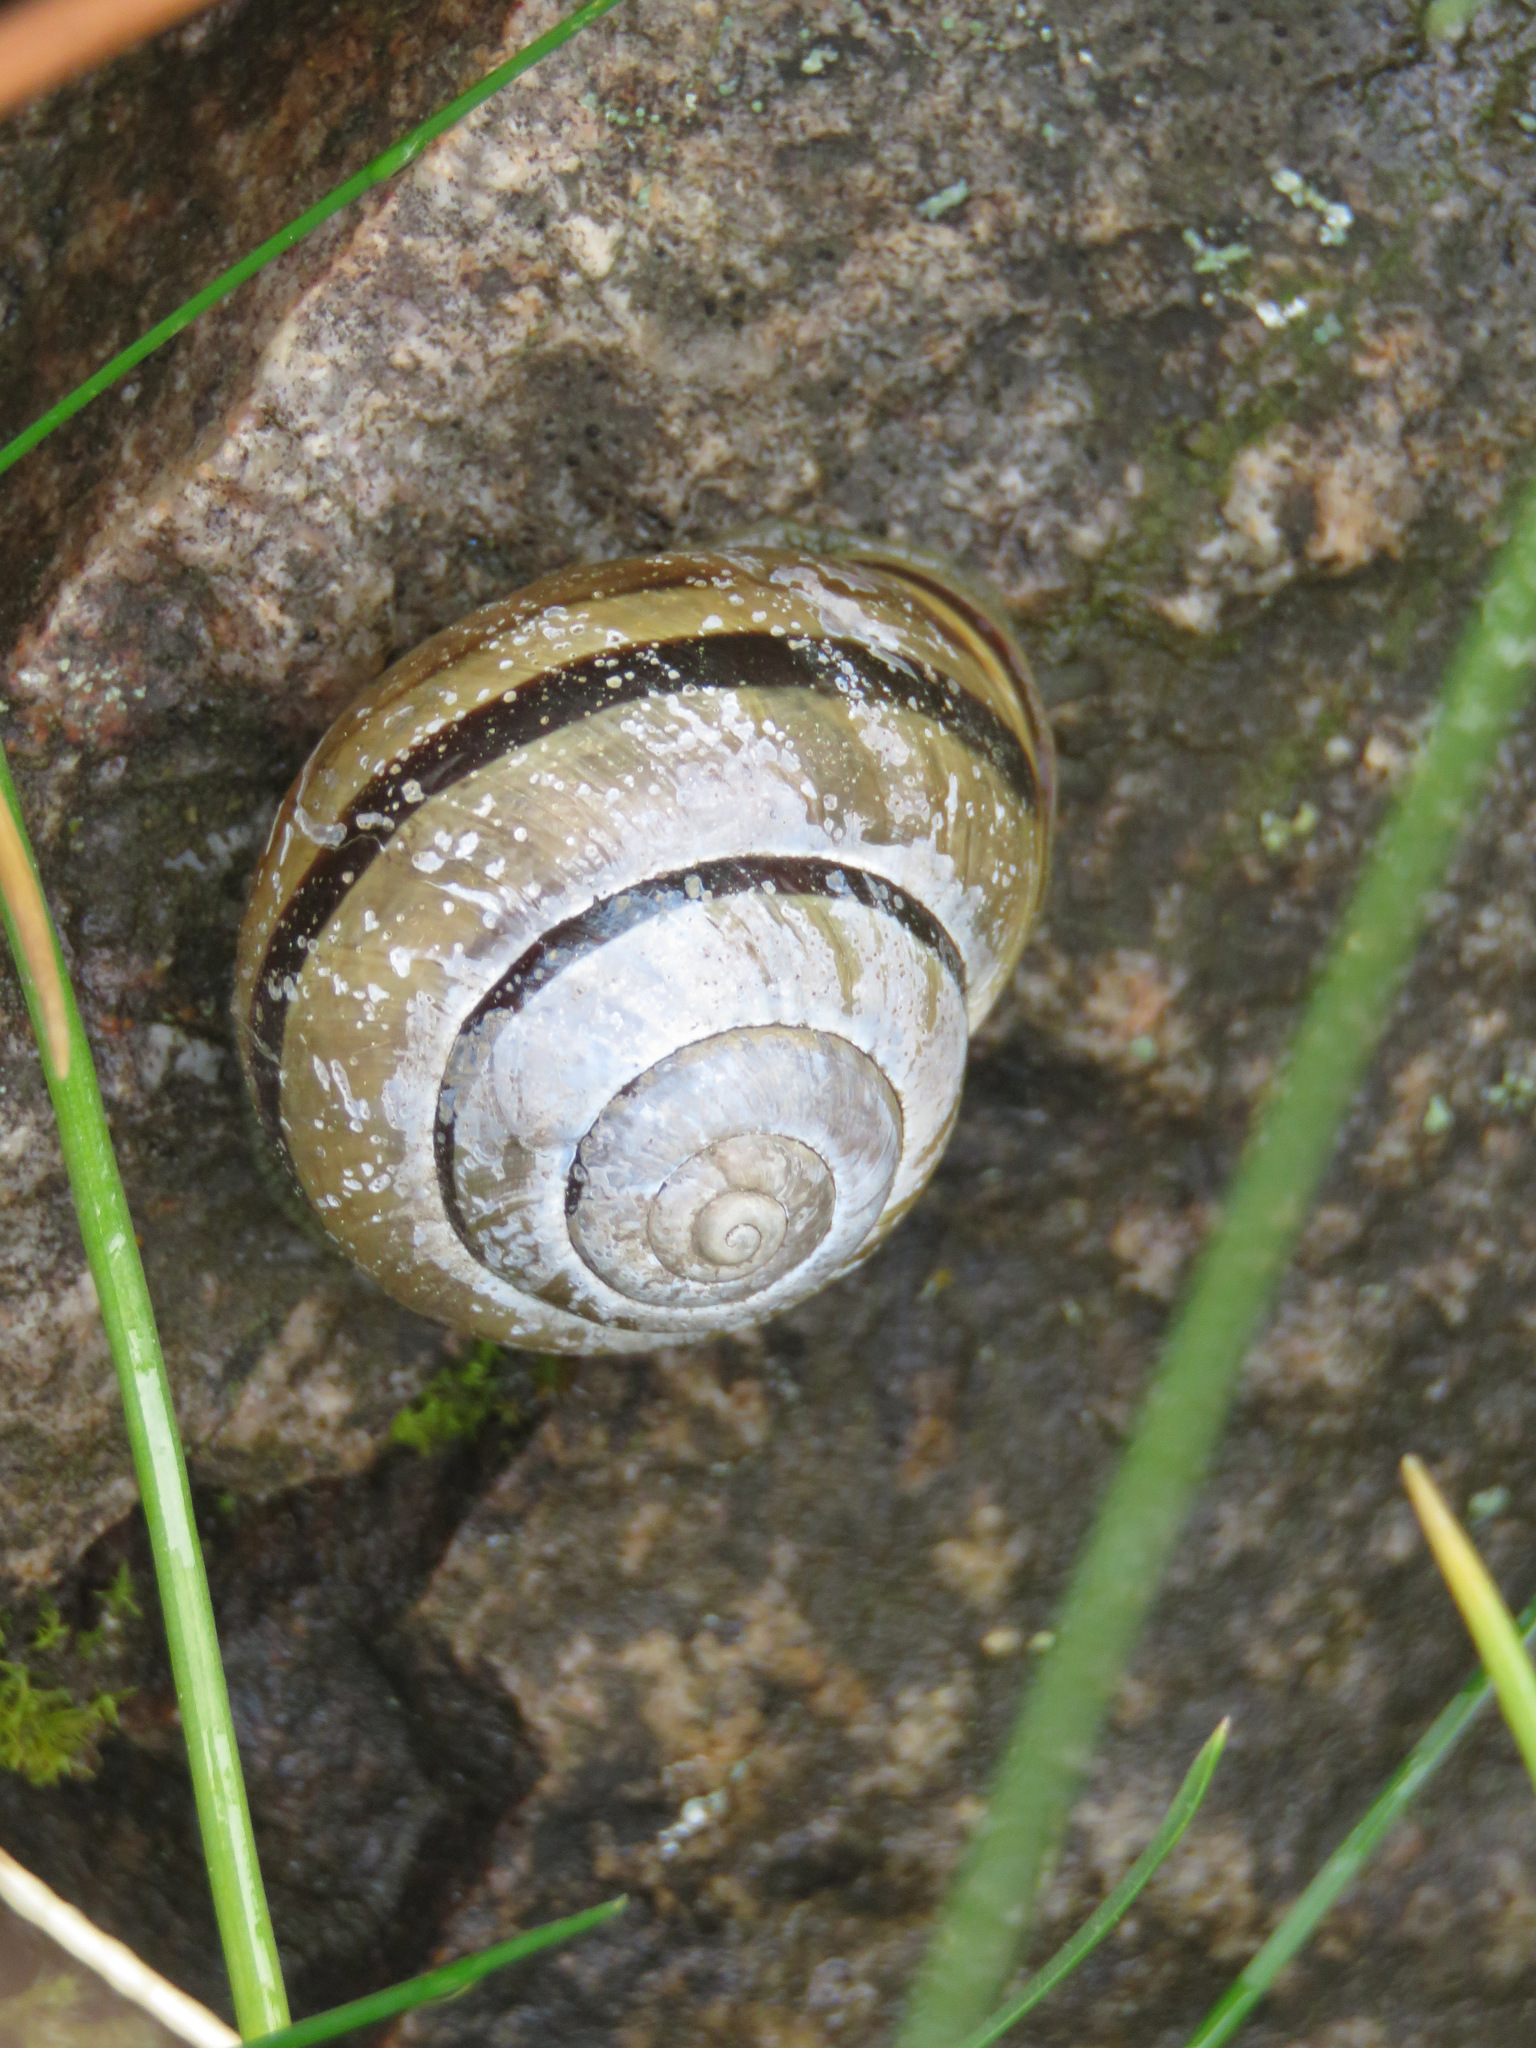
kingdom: Animalia
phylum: Mollusca
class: Gastropoda
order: Stylommatophora
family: Helicidae
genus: Cepaea
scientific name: Cepaea nemoralis
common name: Grovesnail
